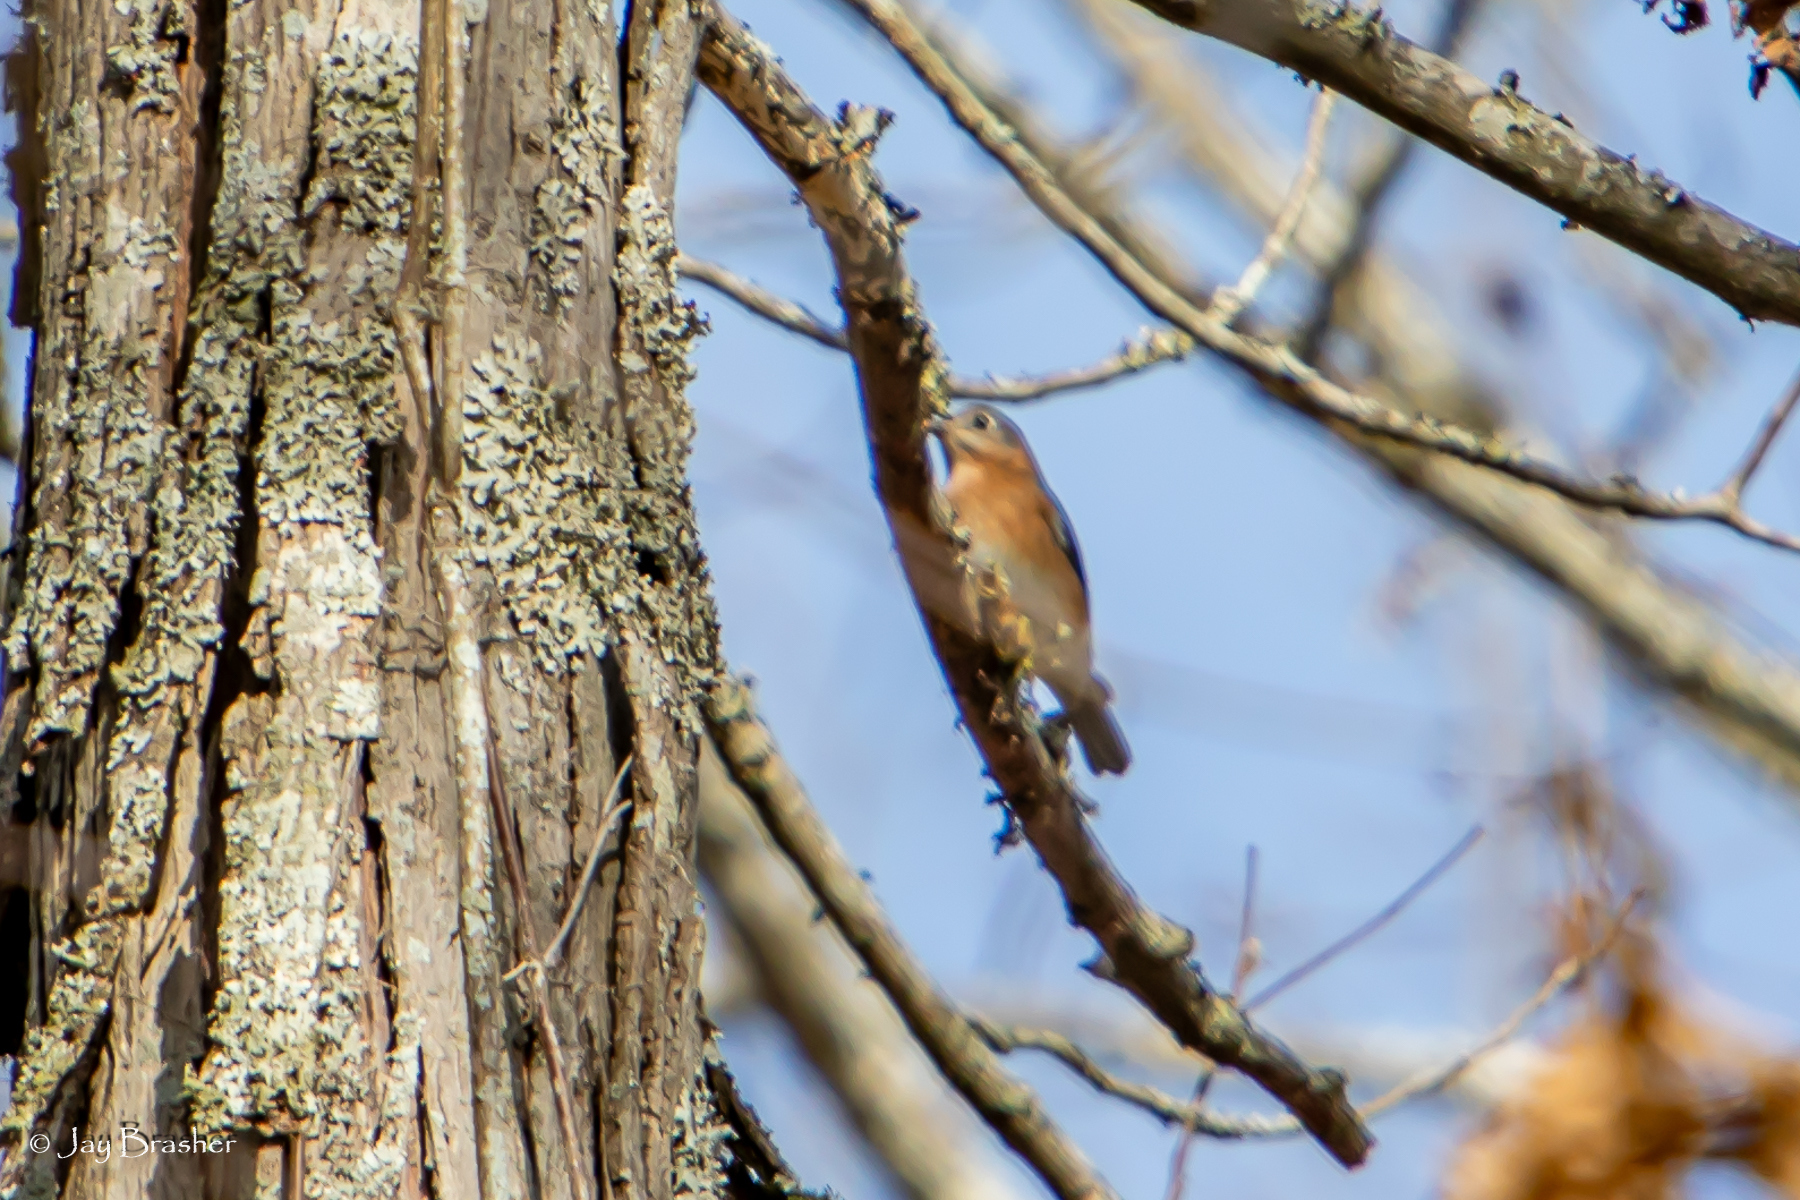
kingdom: Animalia
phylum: Chordata
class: Aves
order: Passeriformes
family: Turdidae
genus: Sialia
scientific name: Sialia sialis
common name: Eastern bluebird
